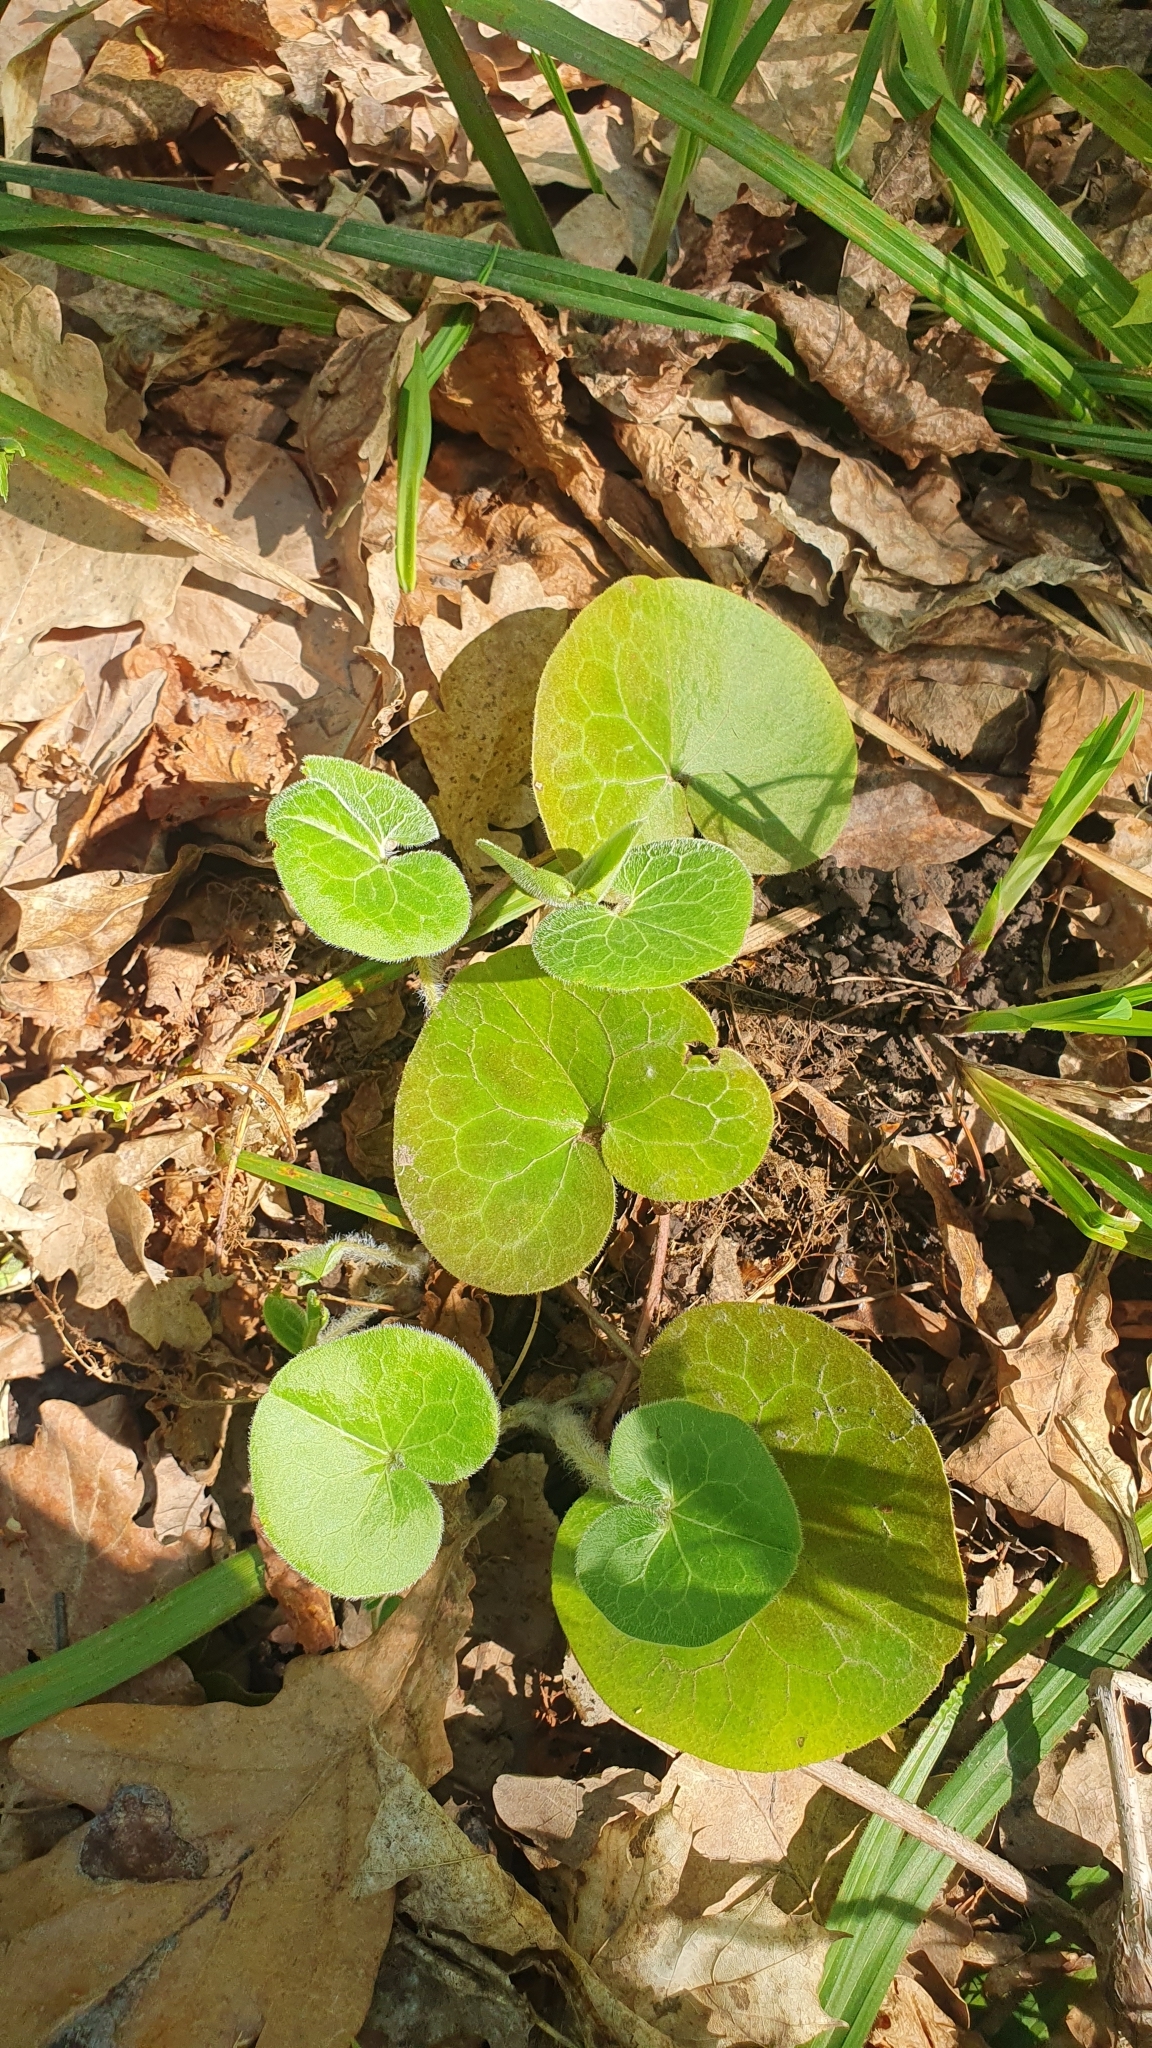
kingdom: Plantae
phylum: Tracheophyta
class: Magnoliopsida
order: Piperales
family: Aristolochiaceae
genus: Asarum
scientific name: Asarum europaeum
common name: Asarabacca
